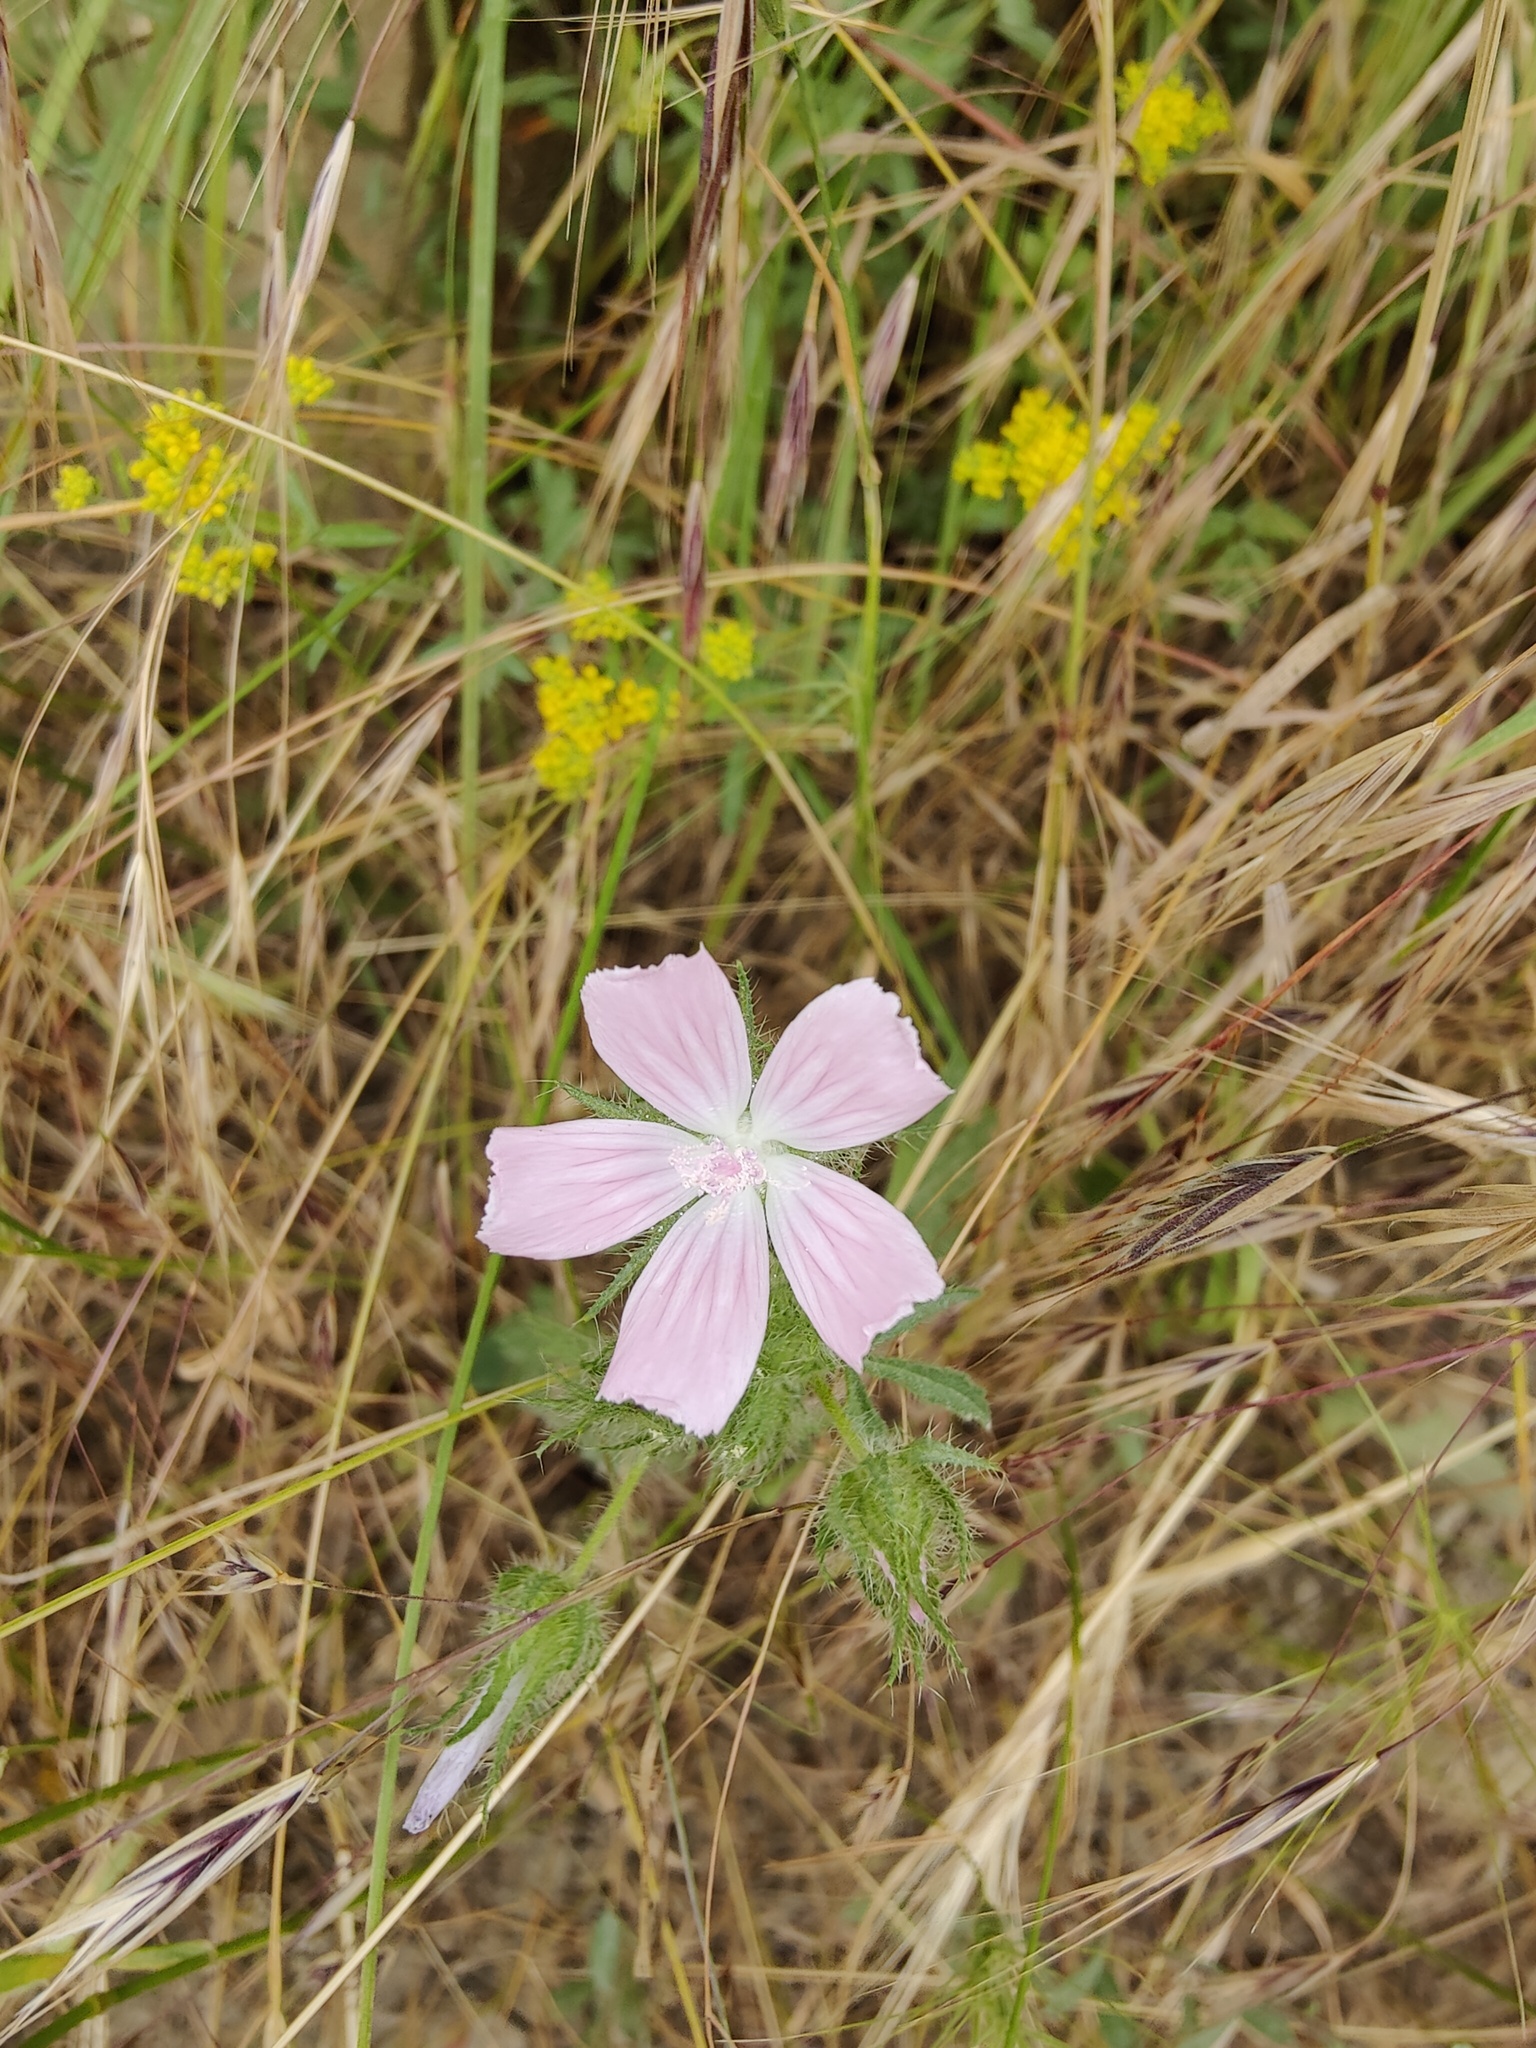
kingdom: Plantae
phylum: Tracheophyta
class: Magnoliopsida
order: Malvales
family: Malvaceae
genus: Althaea
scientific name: Althaea hirsuta
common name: Rough marsh-mallow
